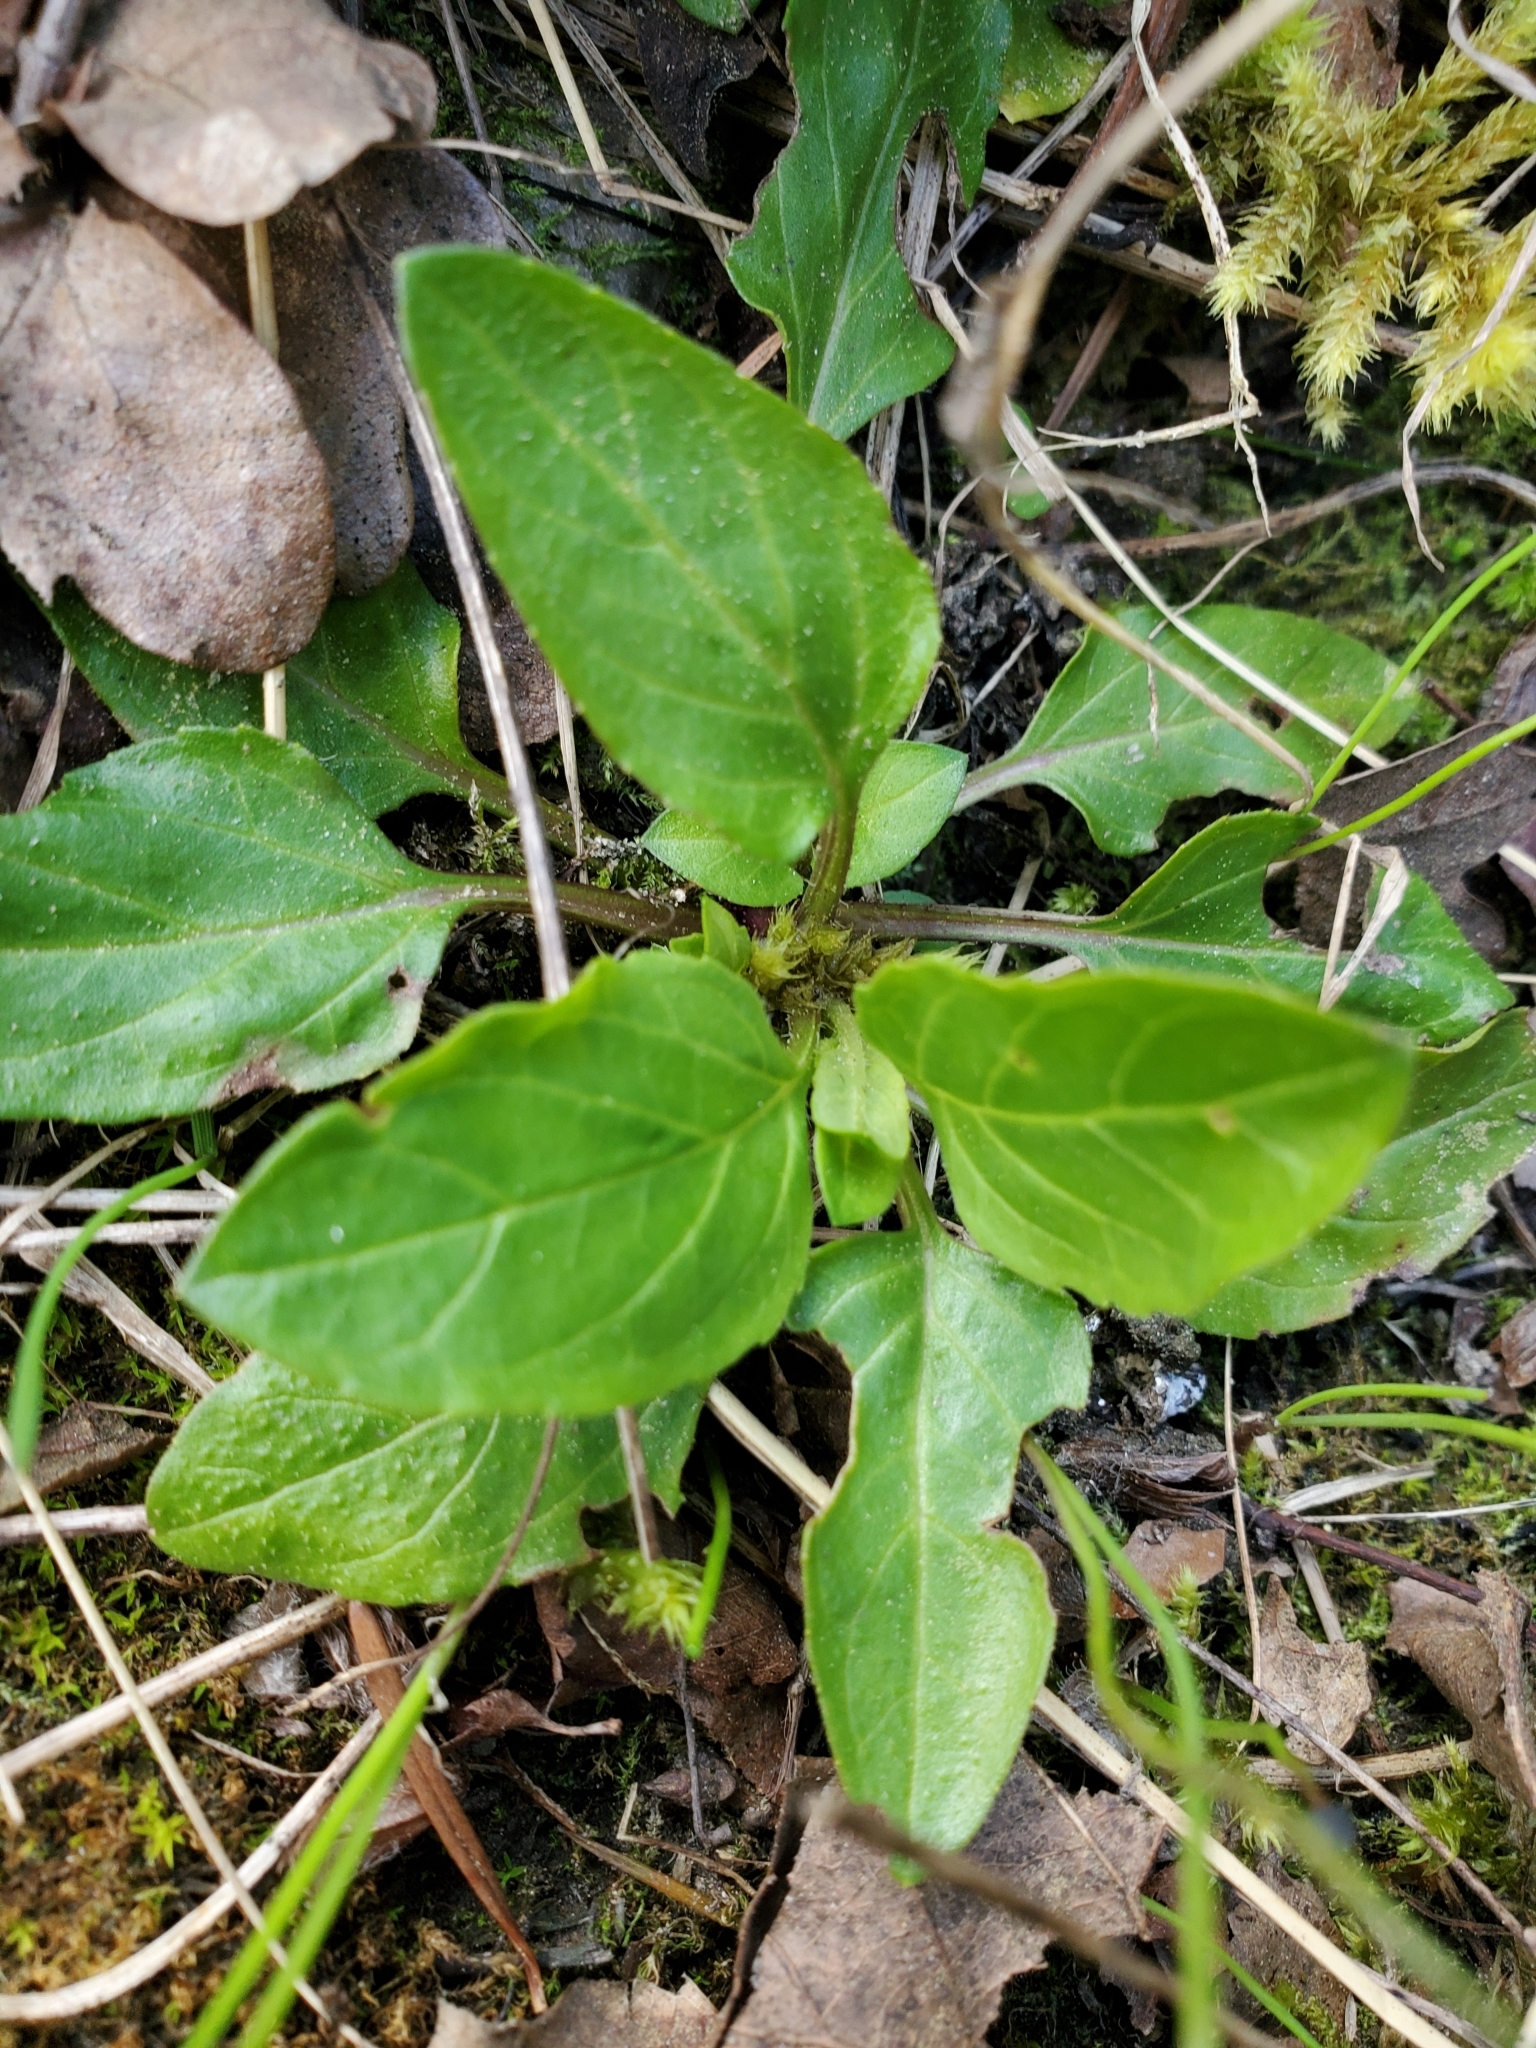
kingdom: Plantae
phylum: Tracheophyta
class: Magnoliopsida
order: Lamiales
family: Lamiaceae
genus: Prunella
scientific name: Prunella vulgaris
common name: Heal-all
